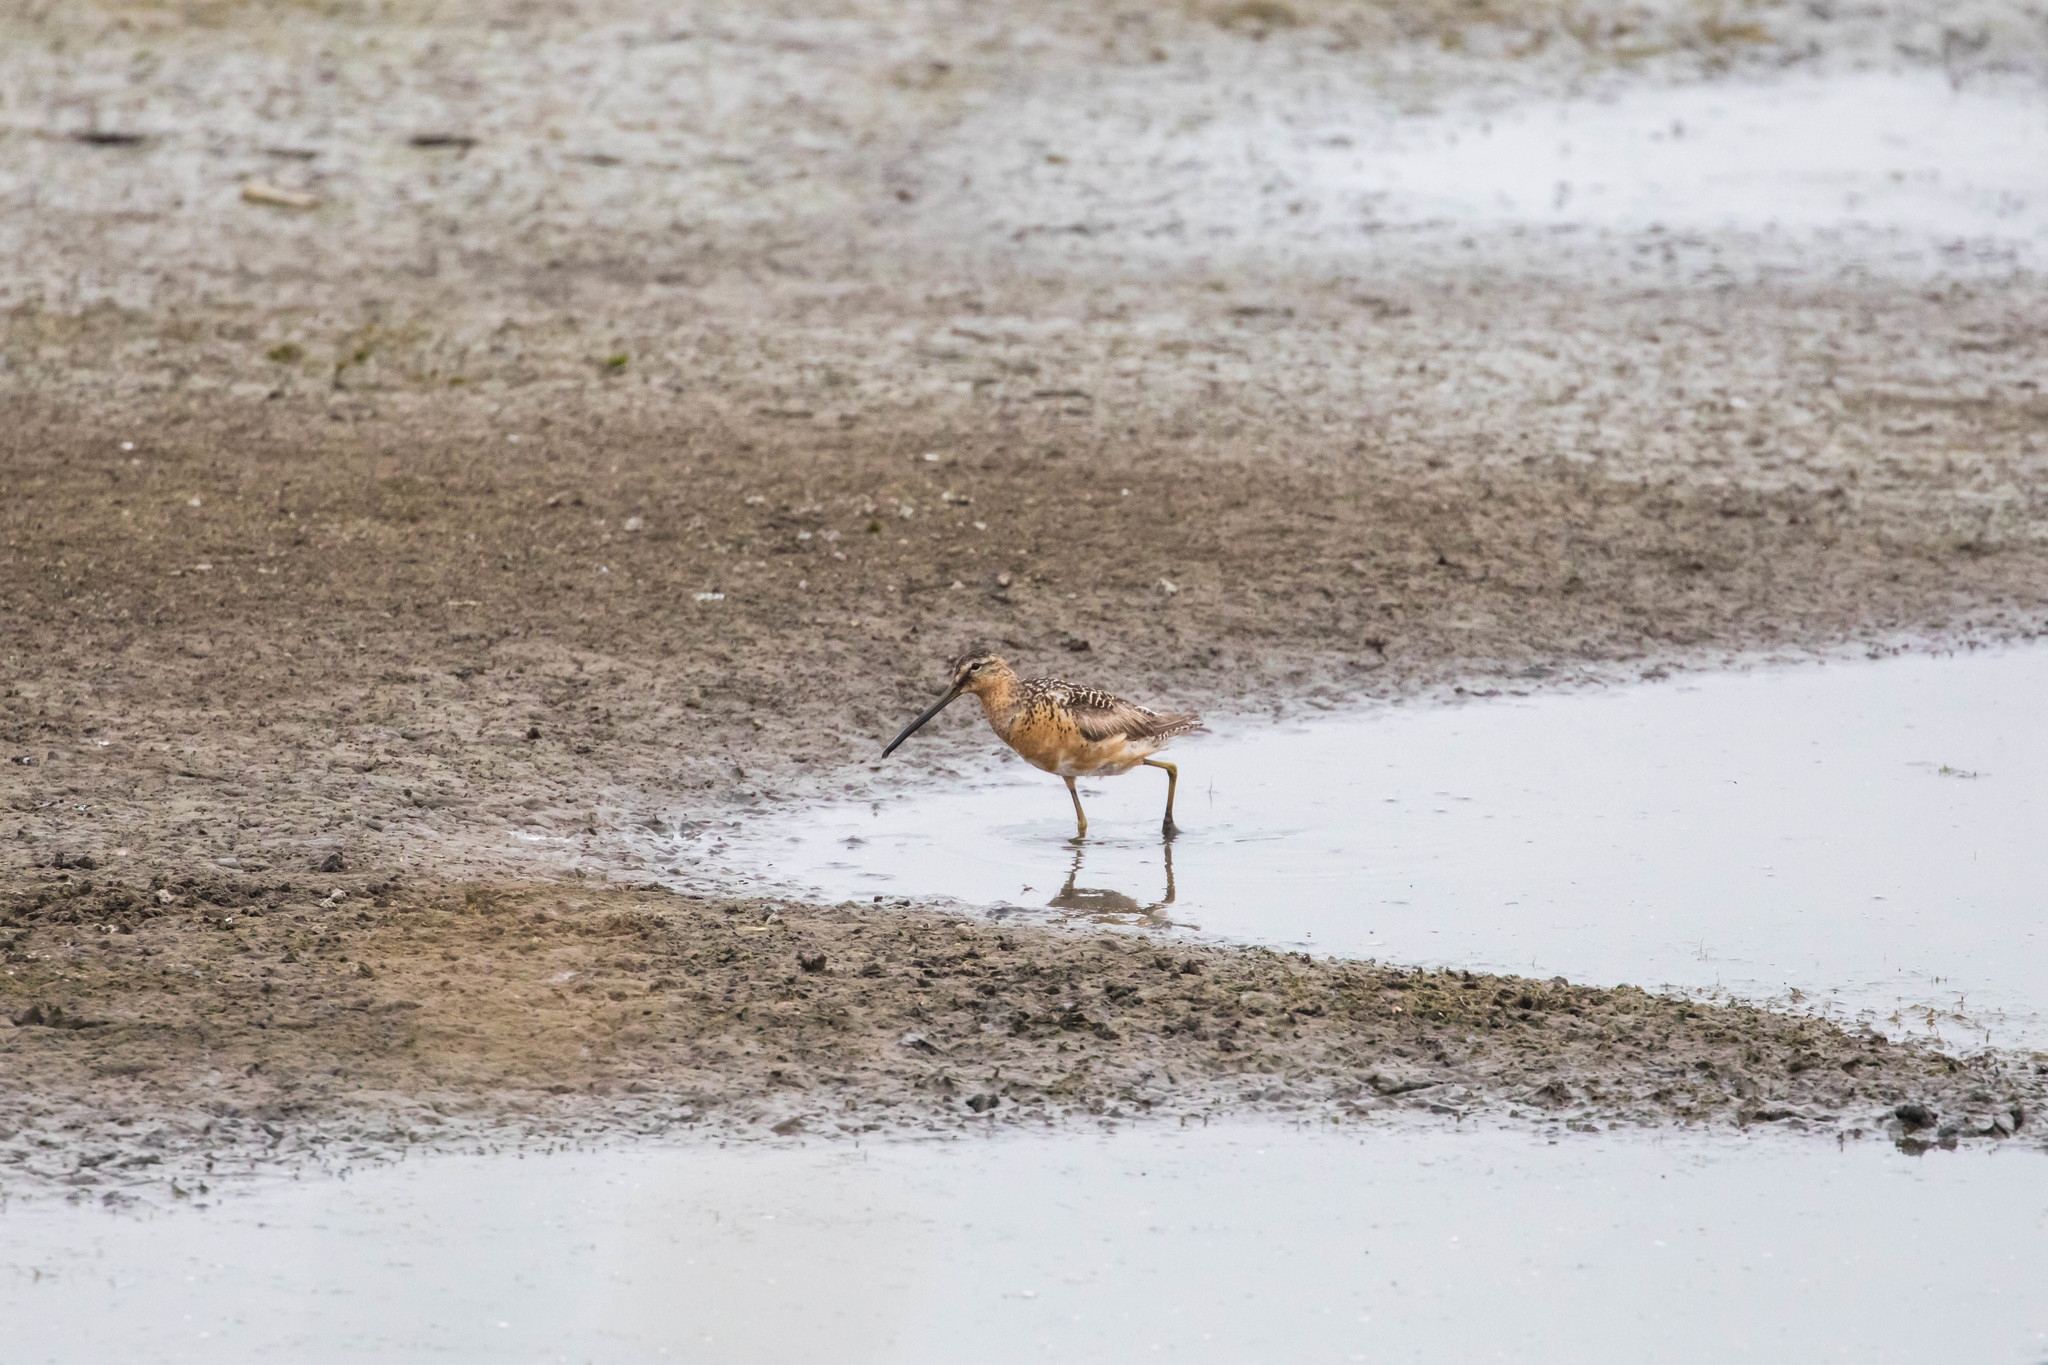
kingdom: Animalia
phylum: Chordata
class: Aves
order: Charadriiformes
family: Scolopacidae
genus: Limnodromus
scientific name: Limnodromus scolopaceus
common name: Long-billed dowitcher
